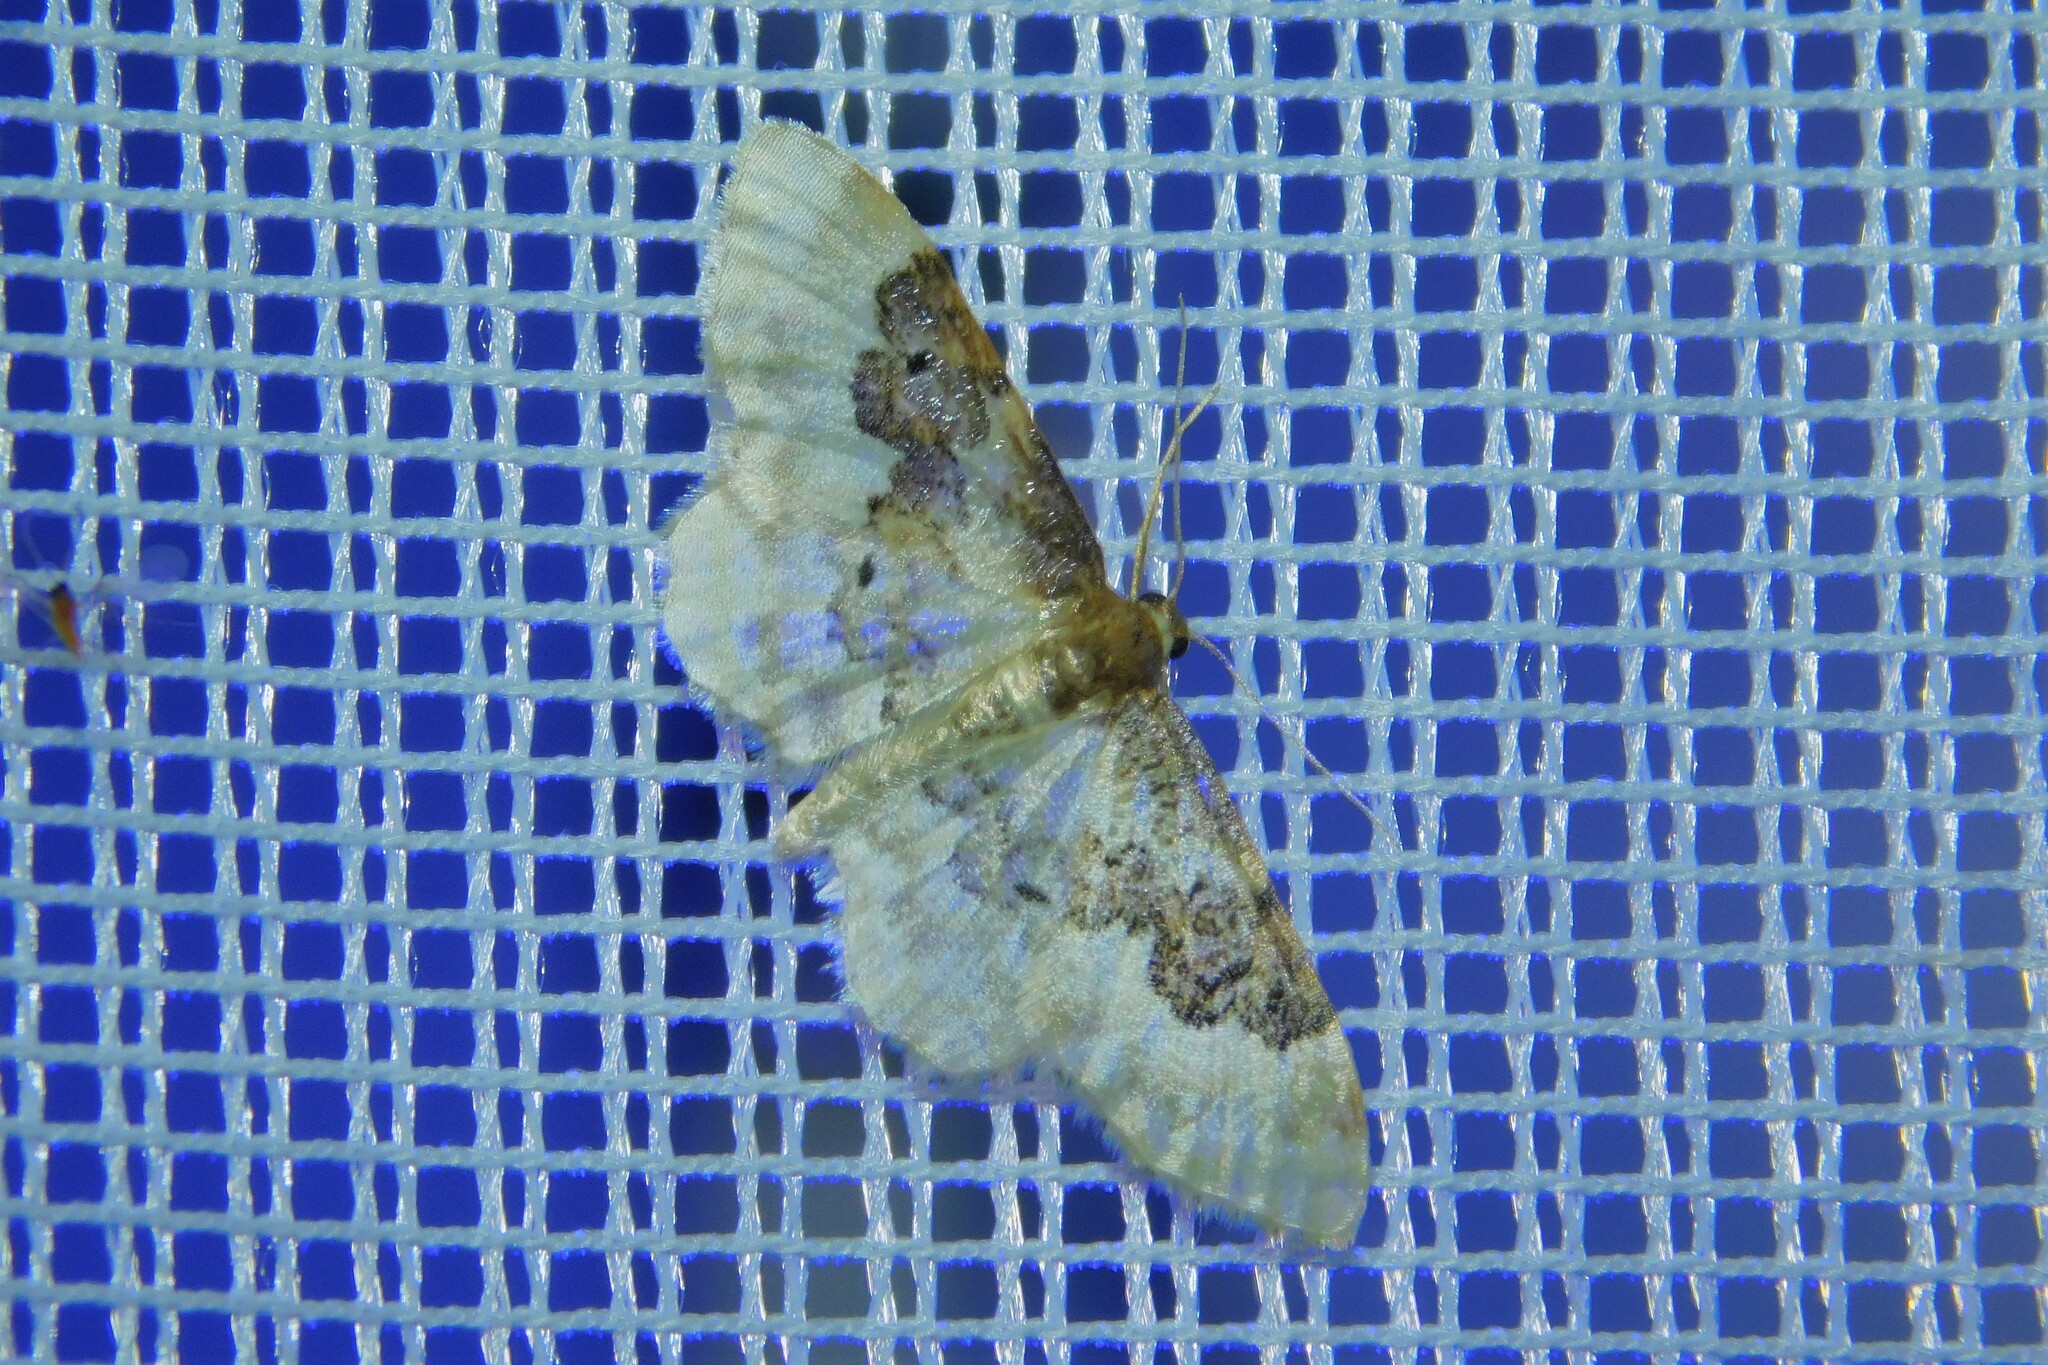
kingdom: Animalia
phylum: Arthropoda
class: Insecta
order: Lepidoptera
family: Geometridae
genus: Idaea
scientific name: Idaea rusticata
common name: Least carpet
